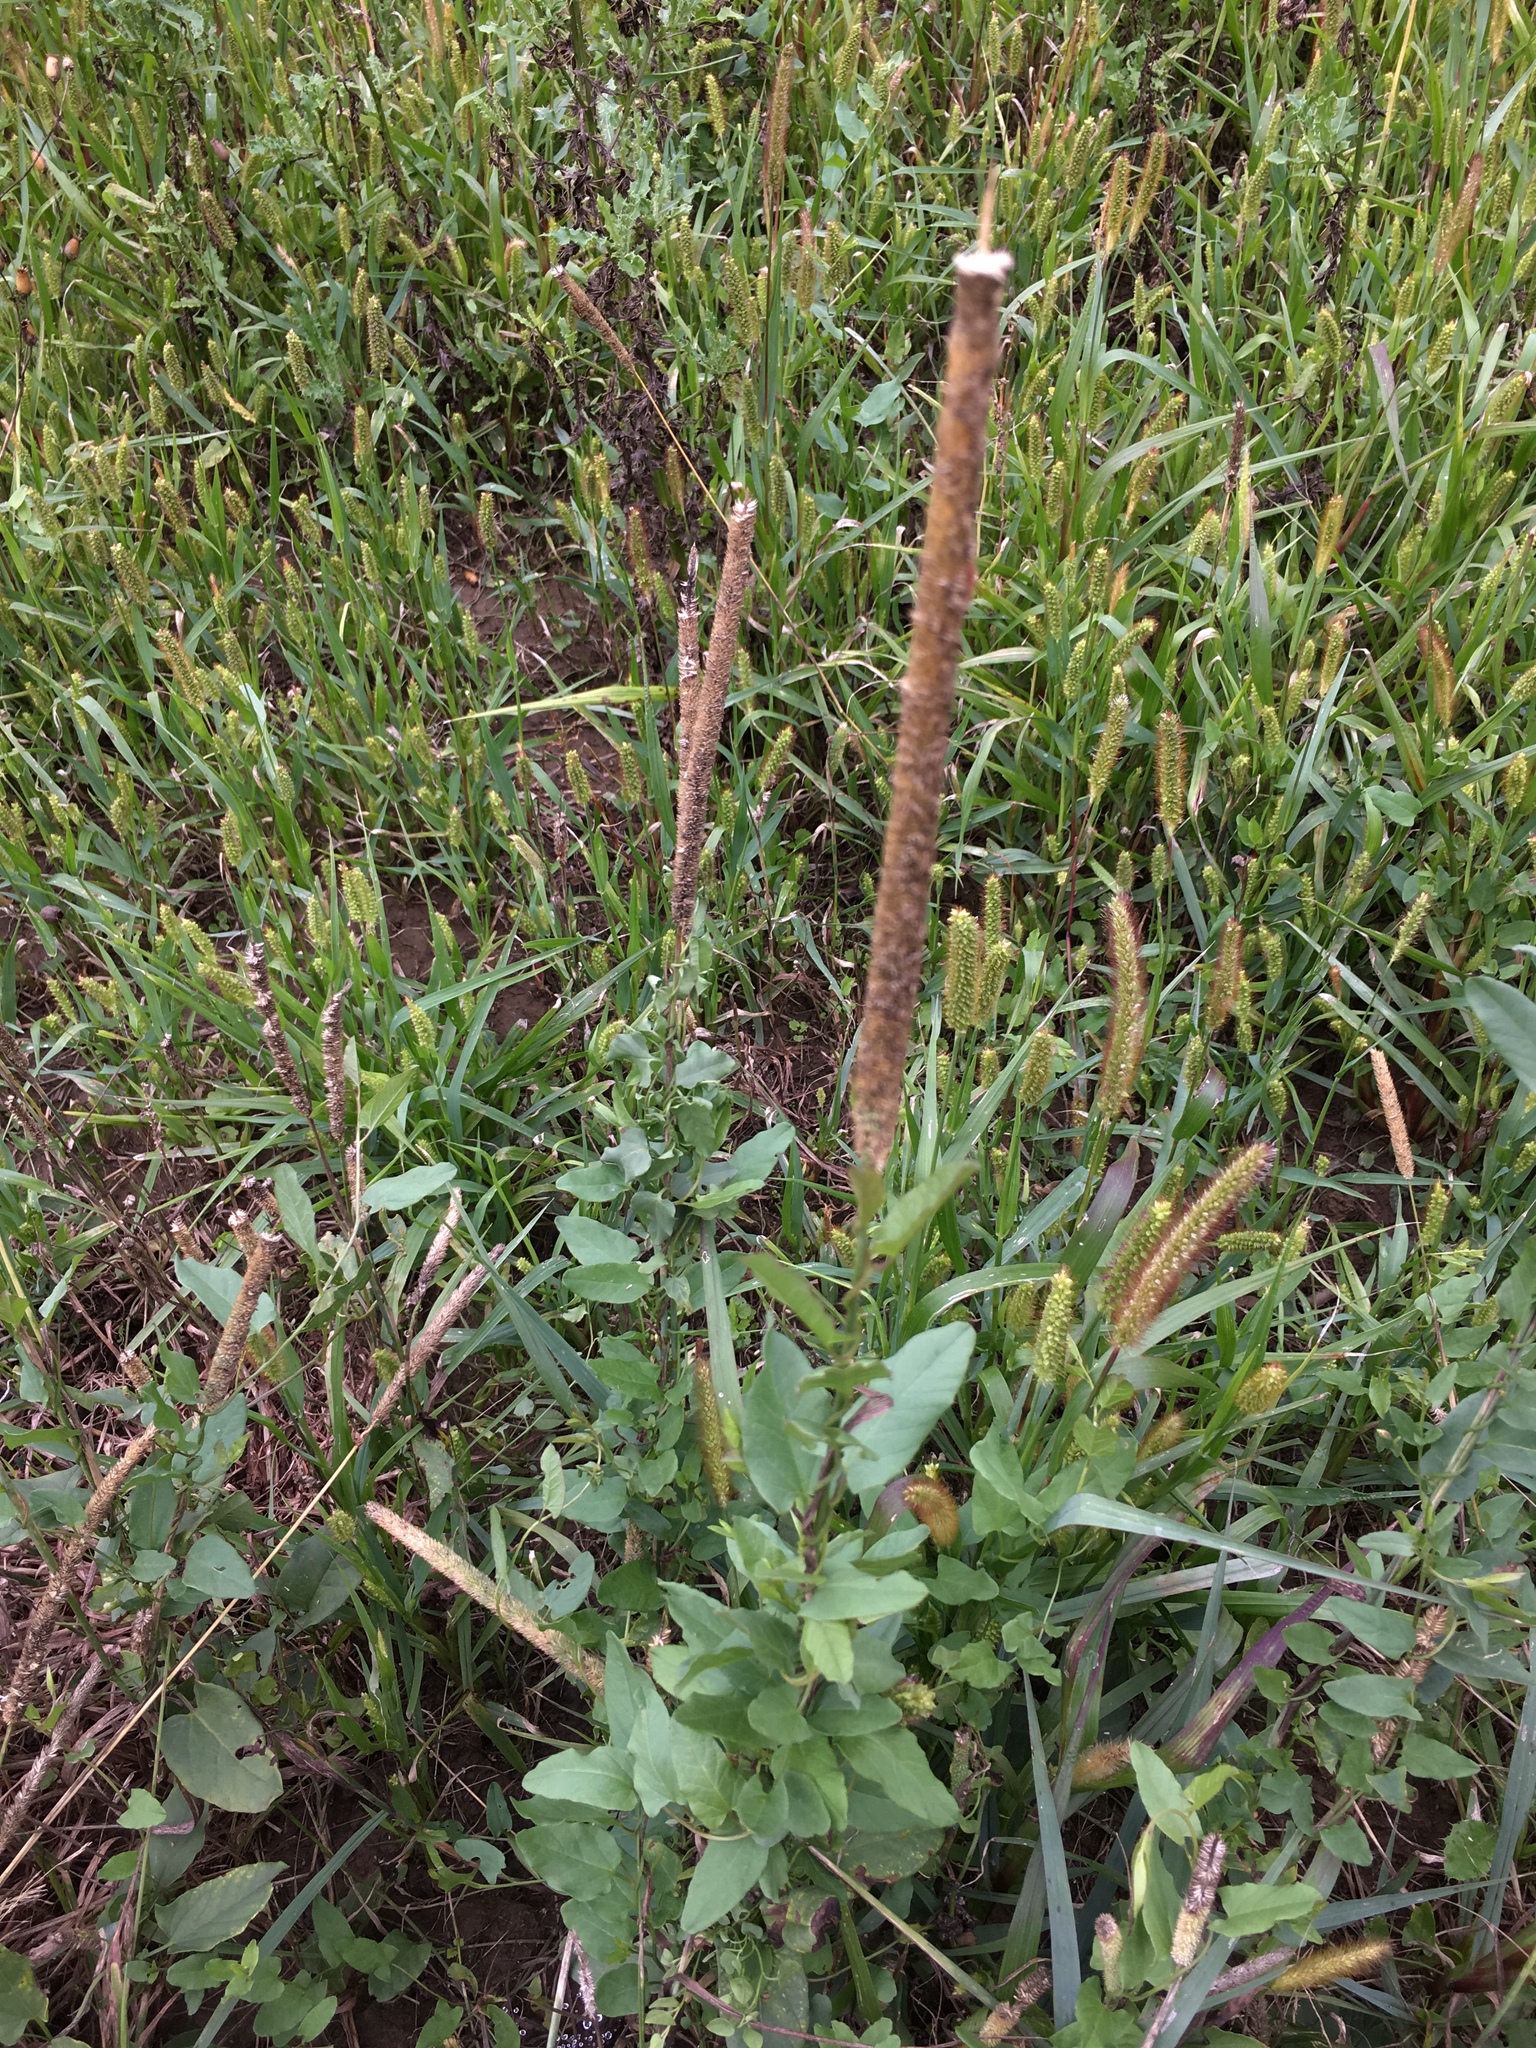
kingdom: Plantae
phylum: Tracheophyta
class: Liliopsida
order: Poales
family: Poaceae
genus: Phleum
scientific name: Phleum pratense
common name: Timothy grass
